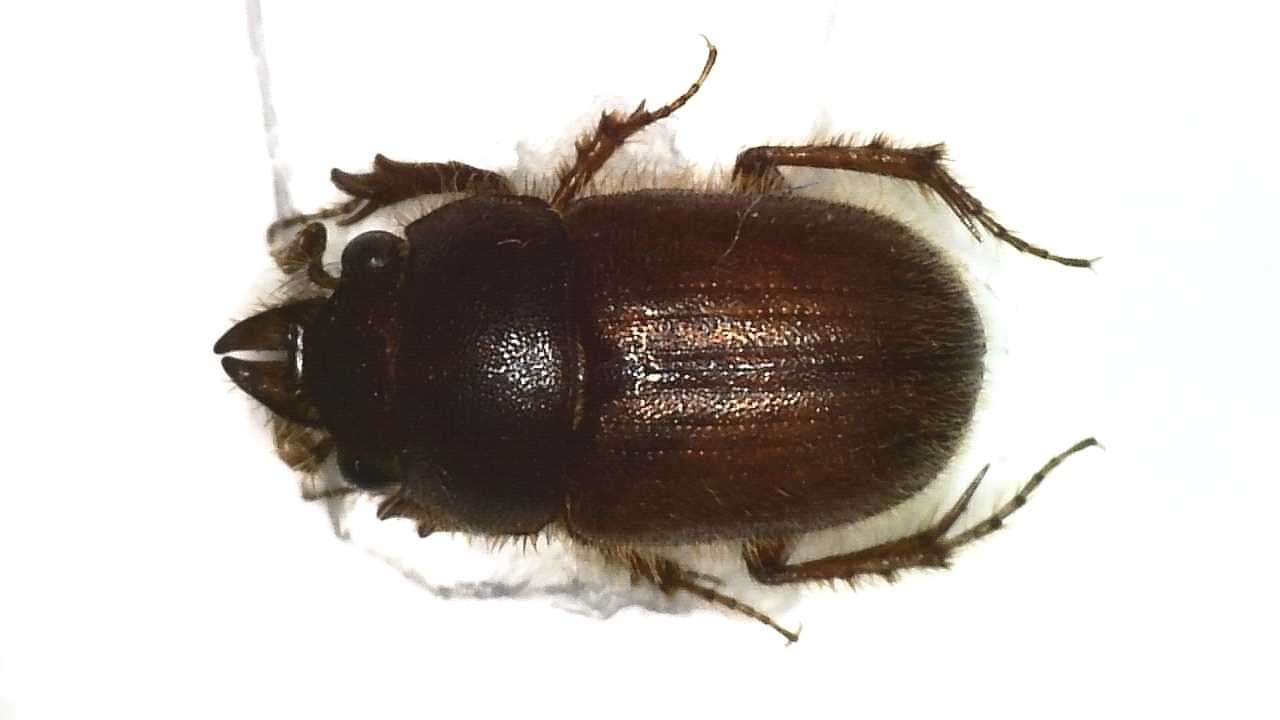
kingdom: Animalia
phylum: Arthropoda
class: Insecta
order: Coleoptera
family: Ochodaeidae
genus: Codocera
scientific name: Codocera ferruginea
